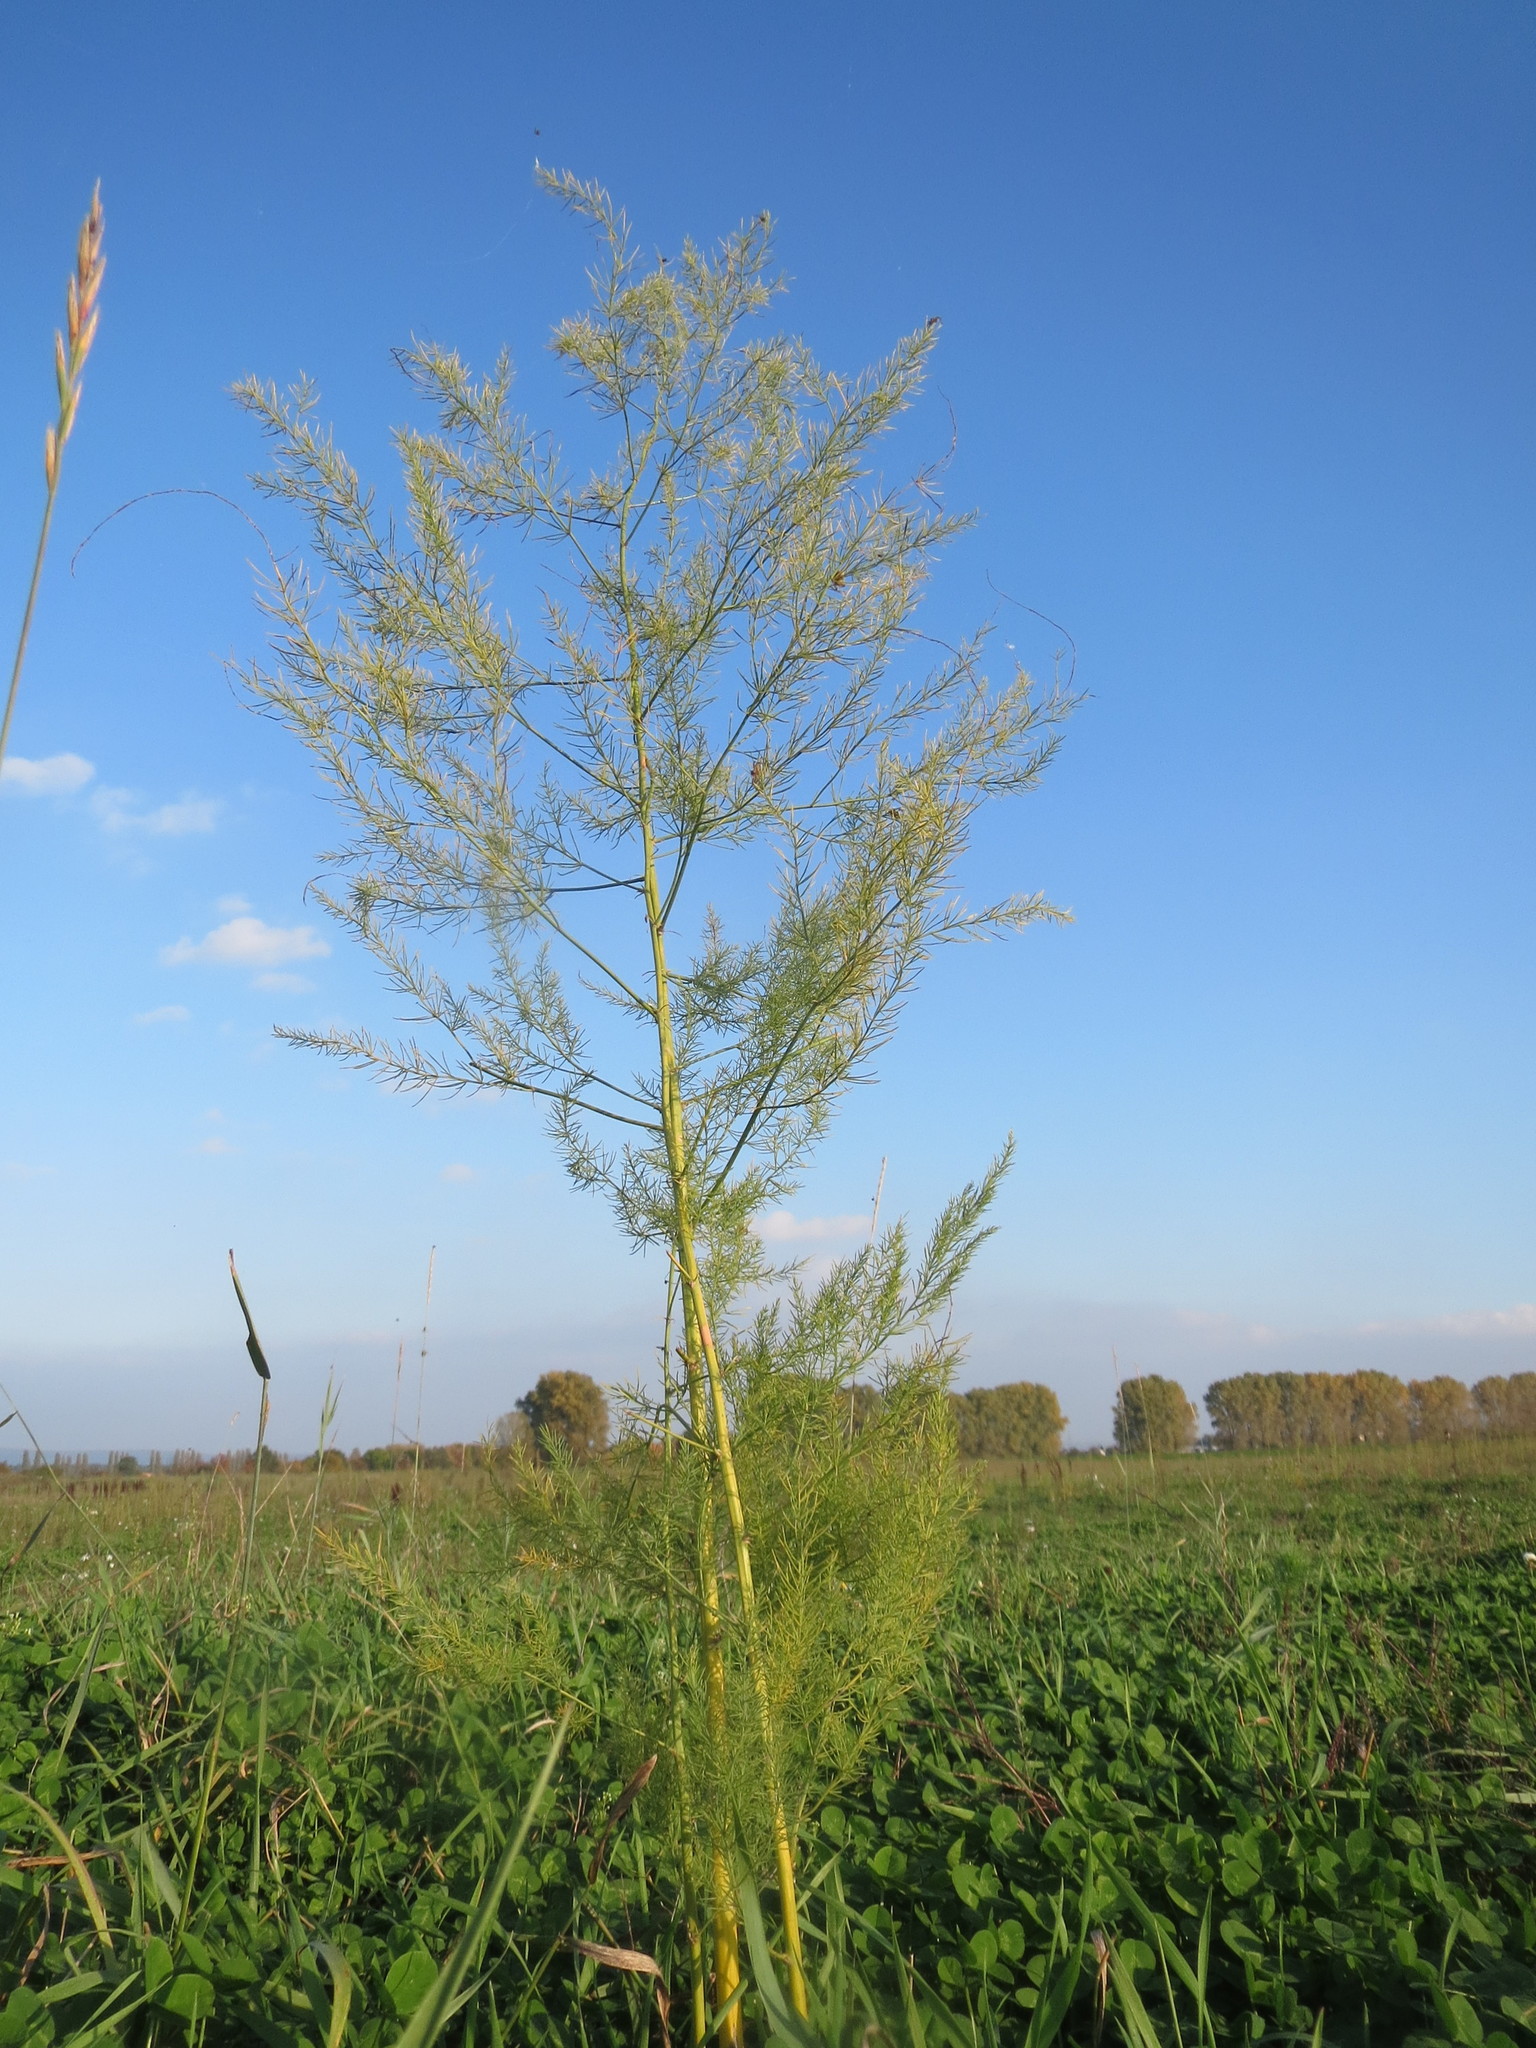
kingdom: Plantae
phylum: Tracheophyta
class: Liliopsida
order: Asparagales
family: Asparagaceae
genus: Asparagus
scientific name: Asparagus officinalis
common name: Garden asparagus
